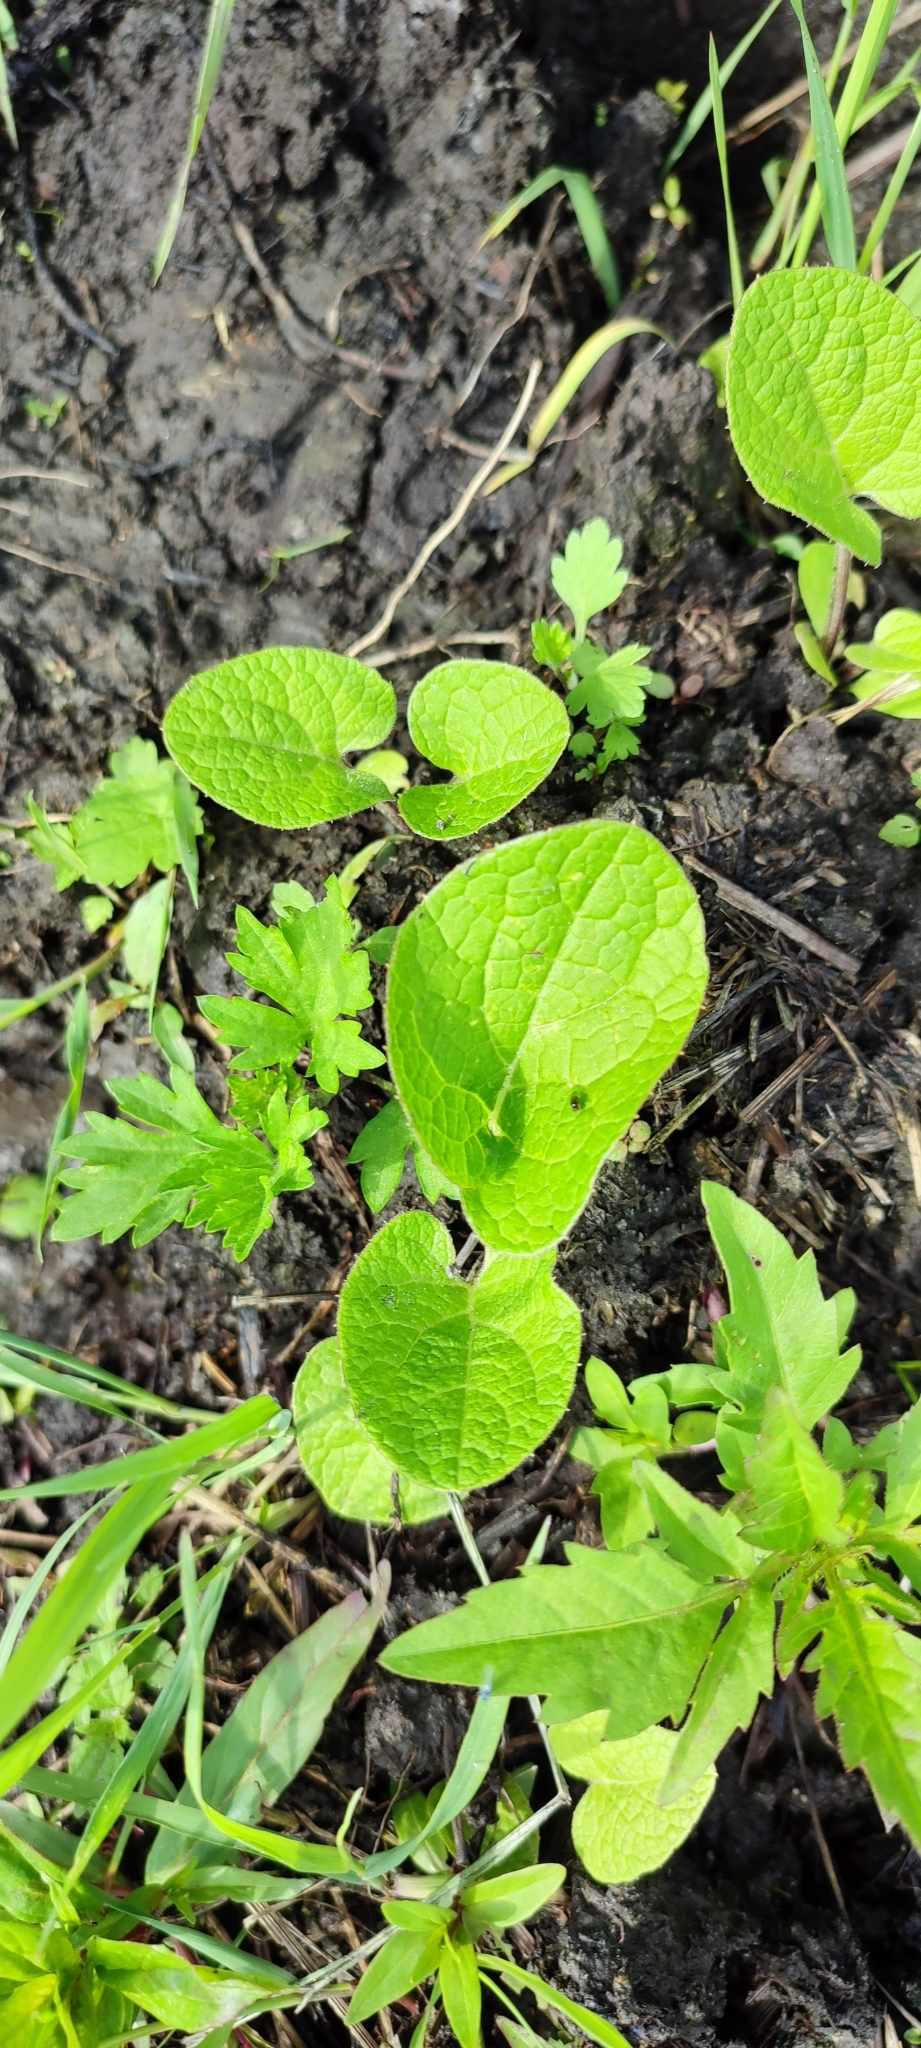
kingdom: Plantae
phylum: Tracheophyta
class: Magnoliopsida
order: Asterales
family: Asteraceae
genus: Arctium
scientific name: Arctium tomentosum
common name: Woolly burdock
